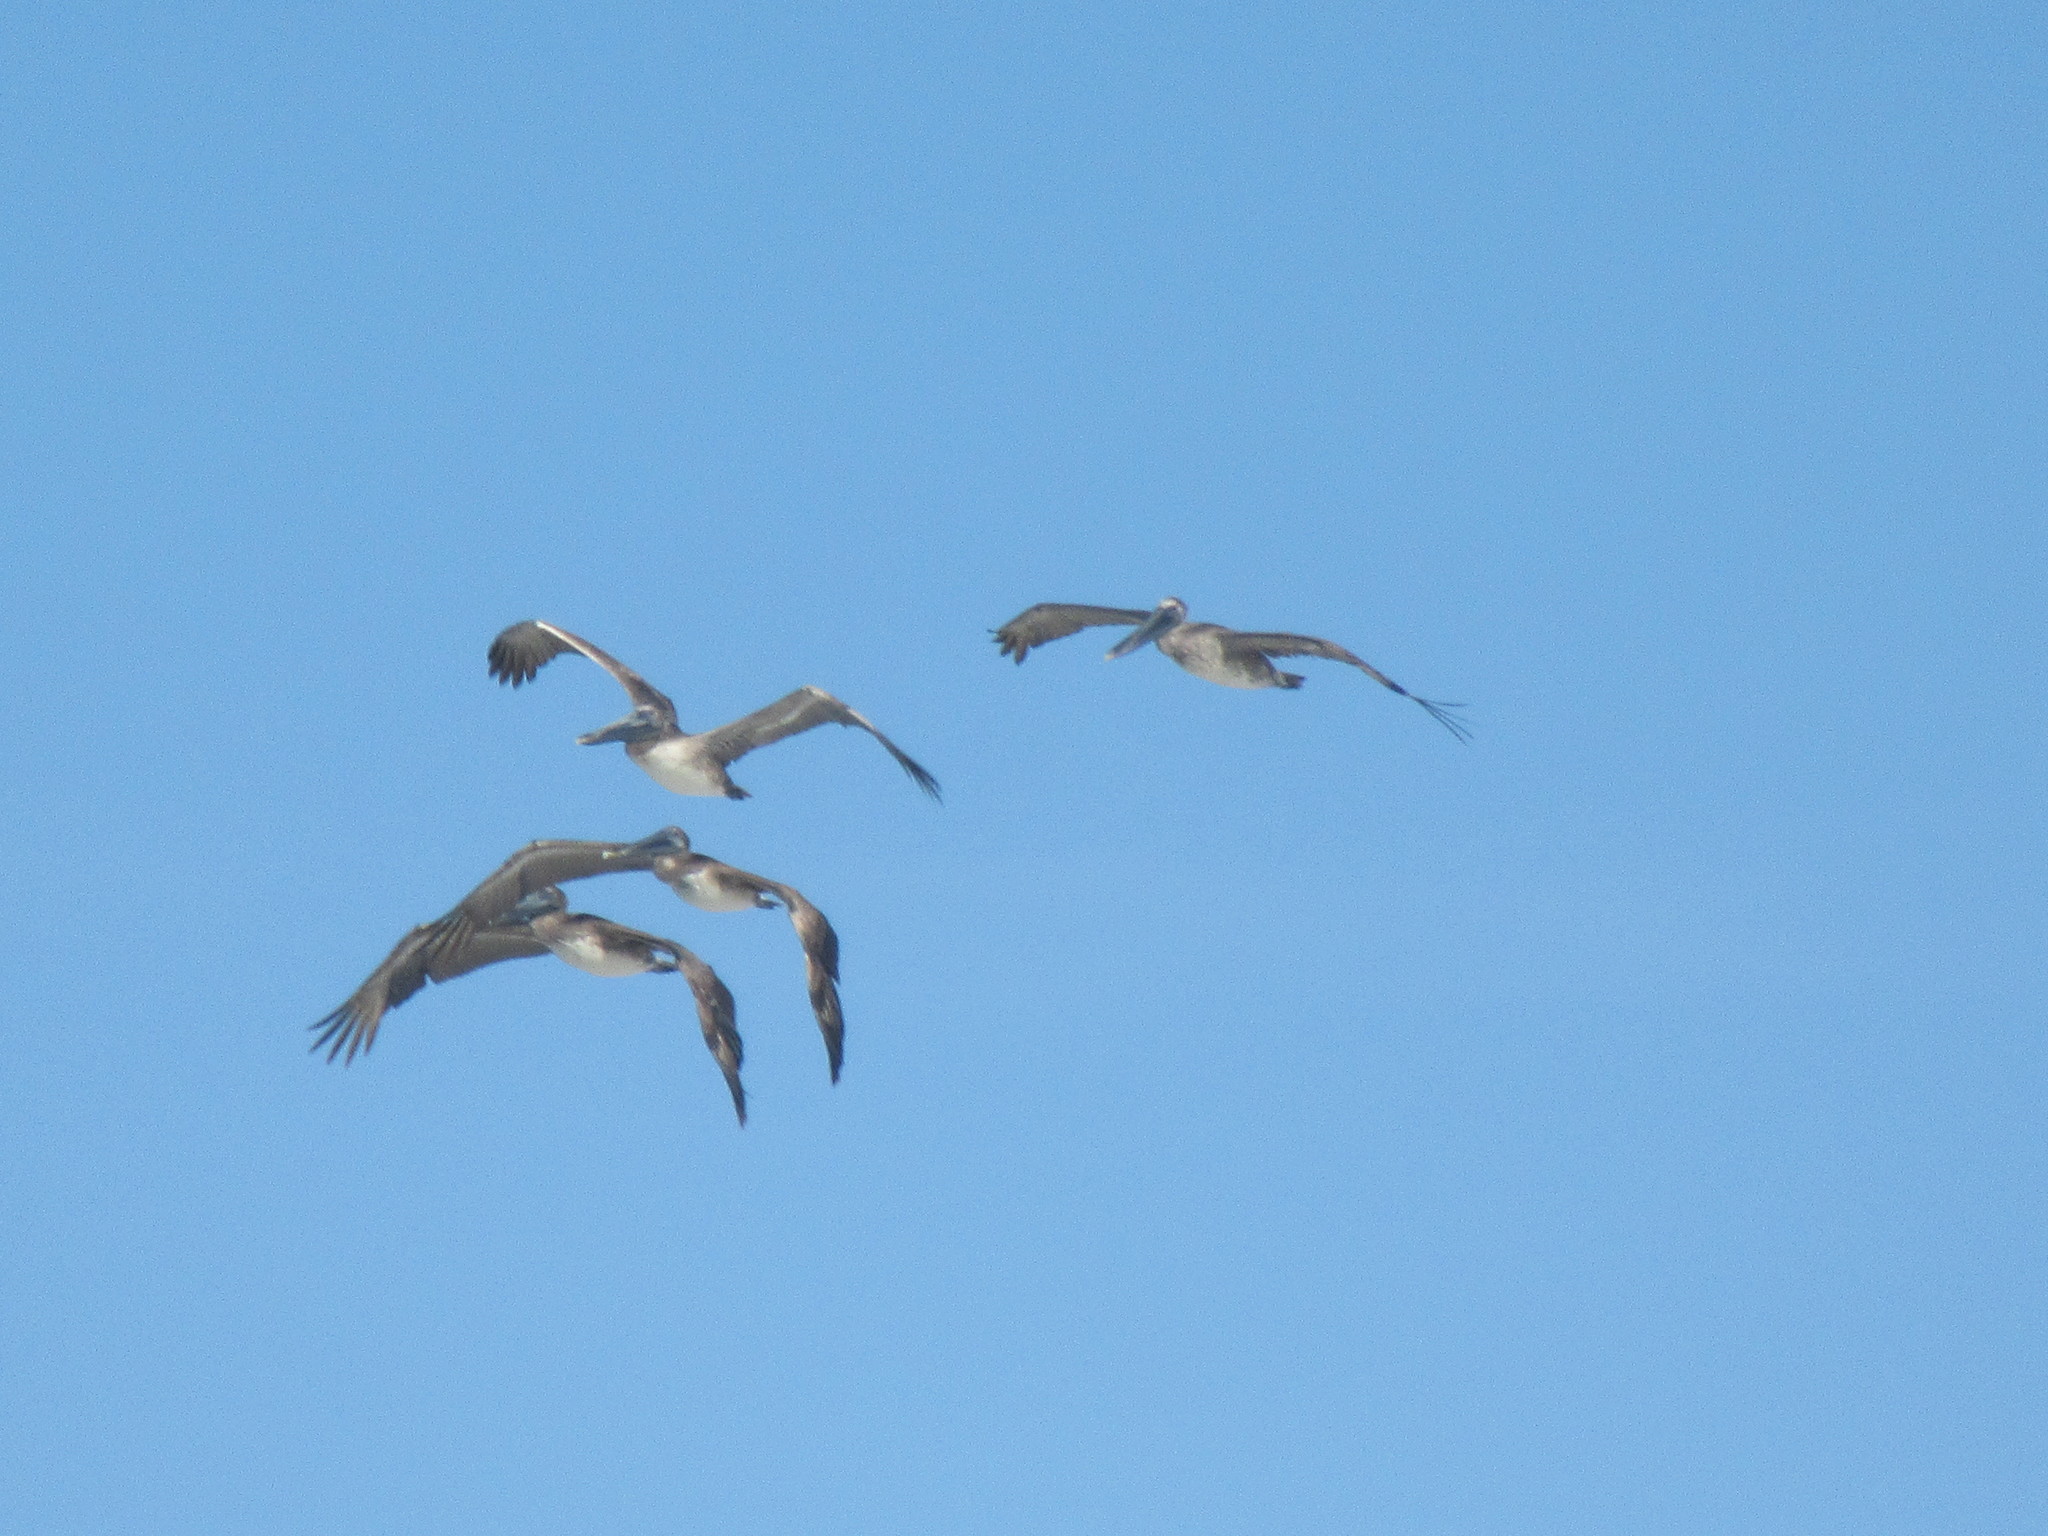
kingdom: Animalia
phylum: Chordata
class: Aves
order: Pelecaniformes
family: Pelecanidae
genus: Pelecanus
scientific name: Pelecanus occidentalis
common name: Brown pelican
